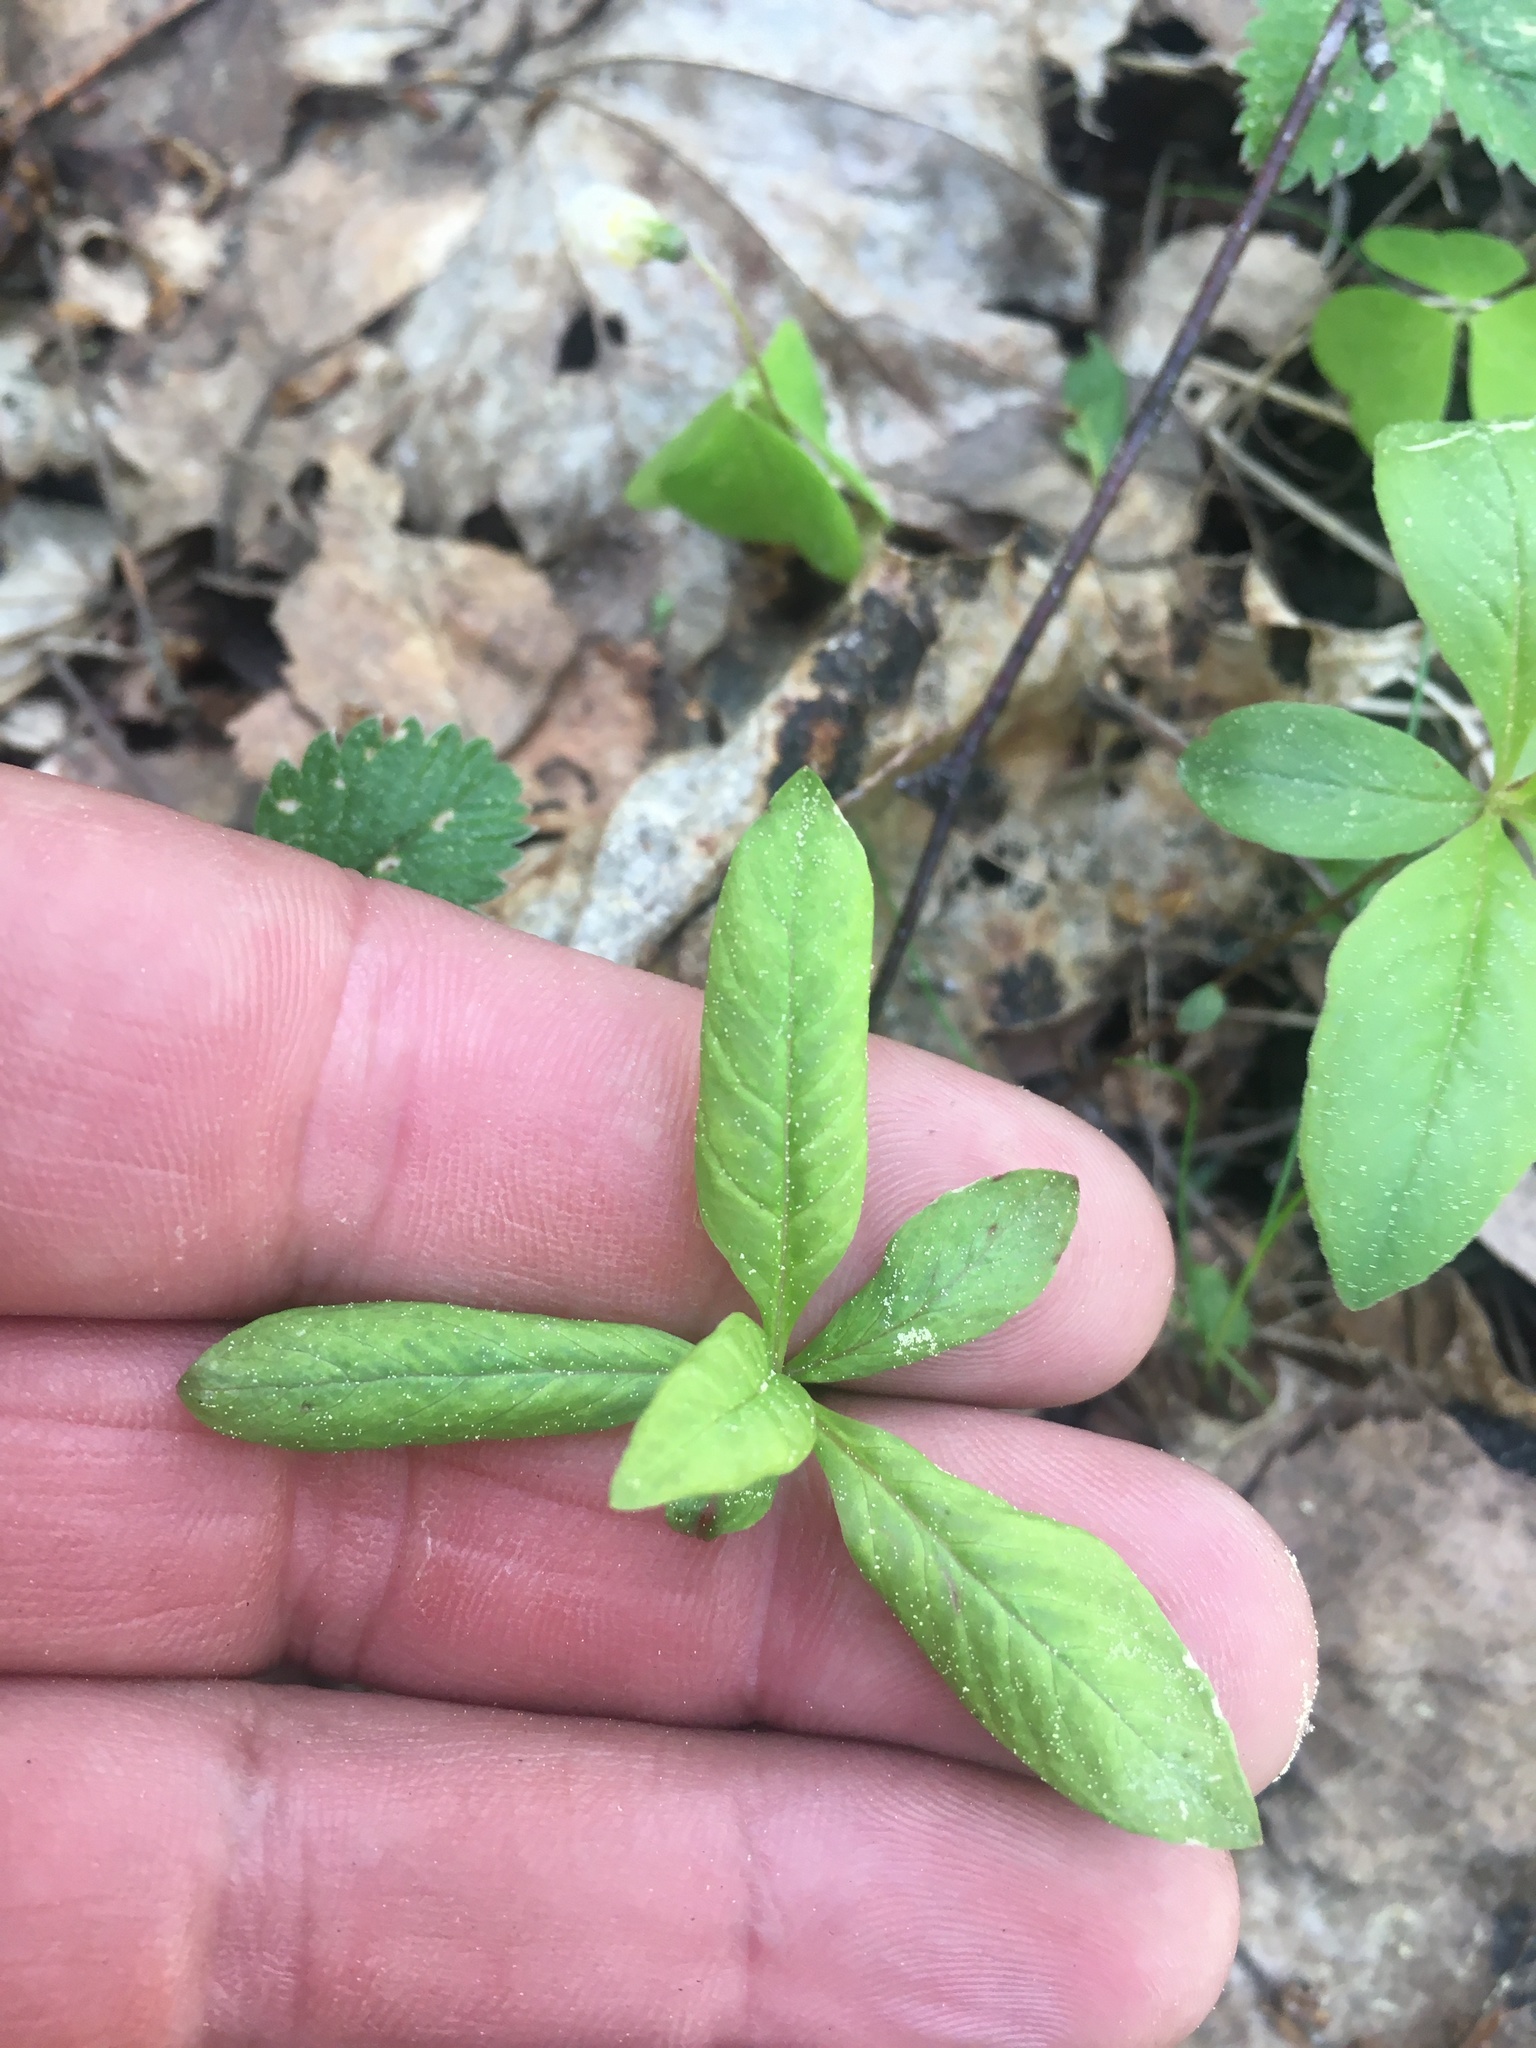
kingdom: Plantae
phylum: Tracheophyta
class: Magnoliopsida
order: Ericales
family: Primulaceae
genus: Lysimachia
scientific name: Lysimachia europaea
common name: Arctic starflower
